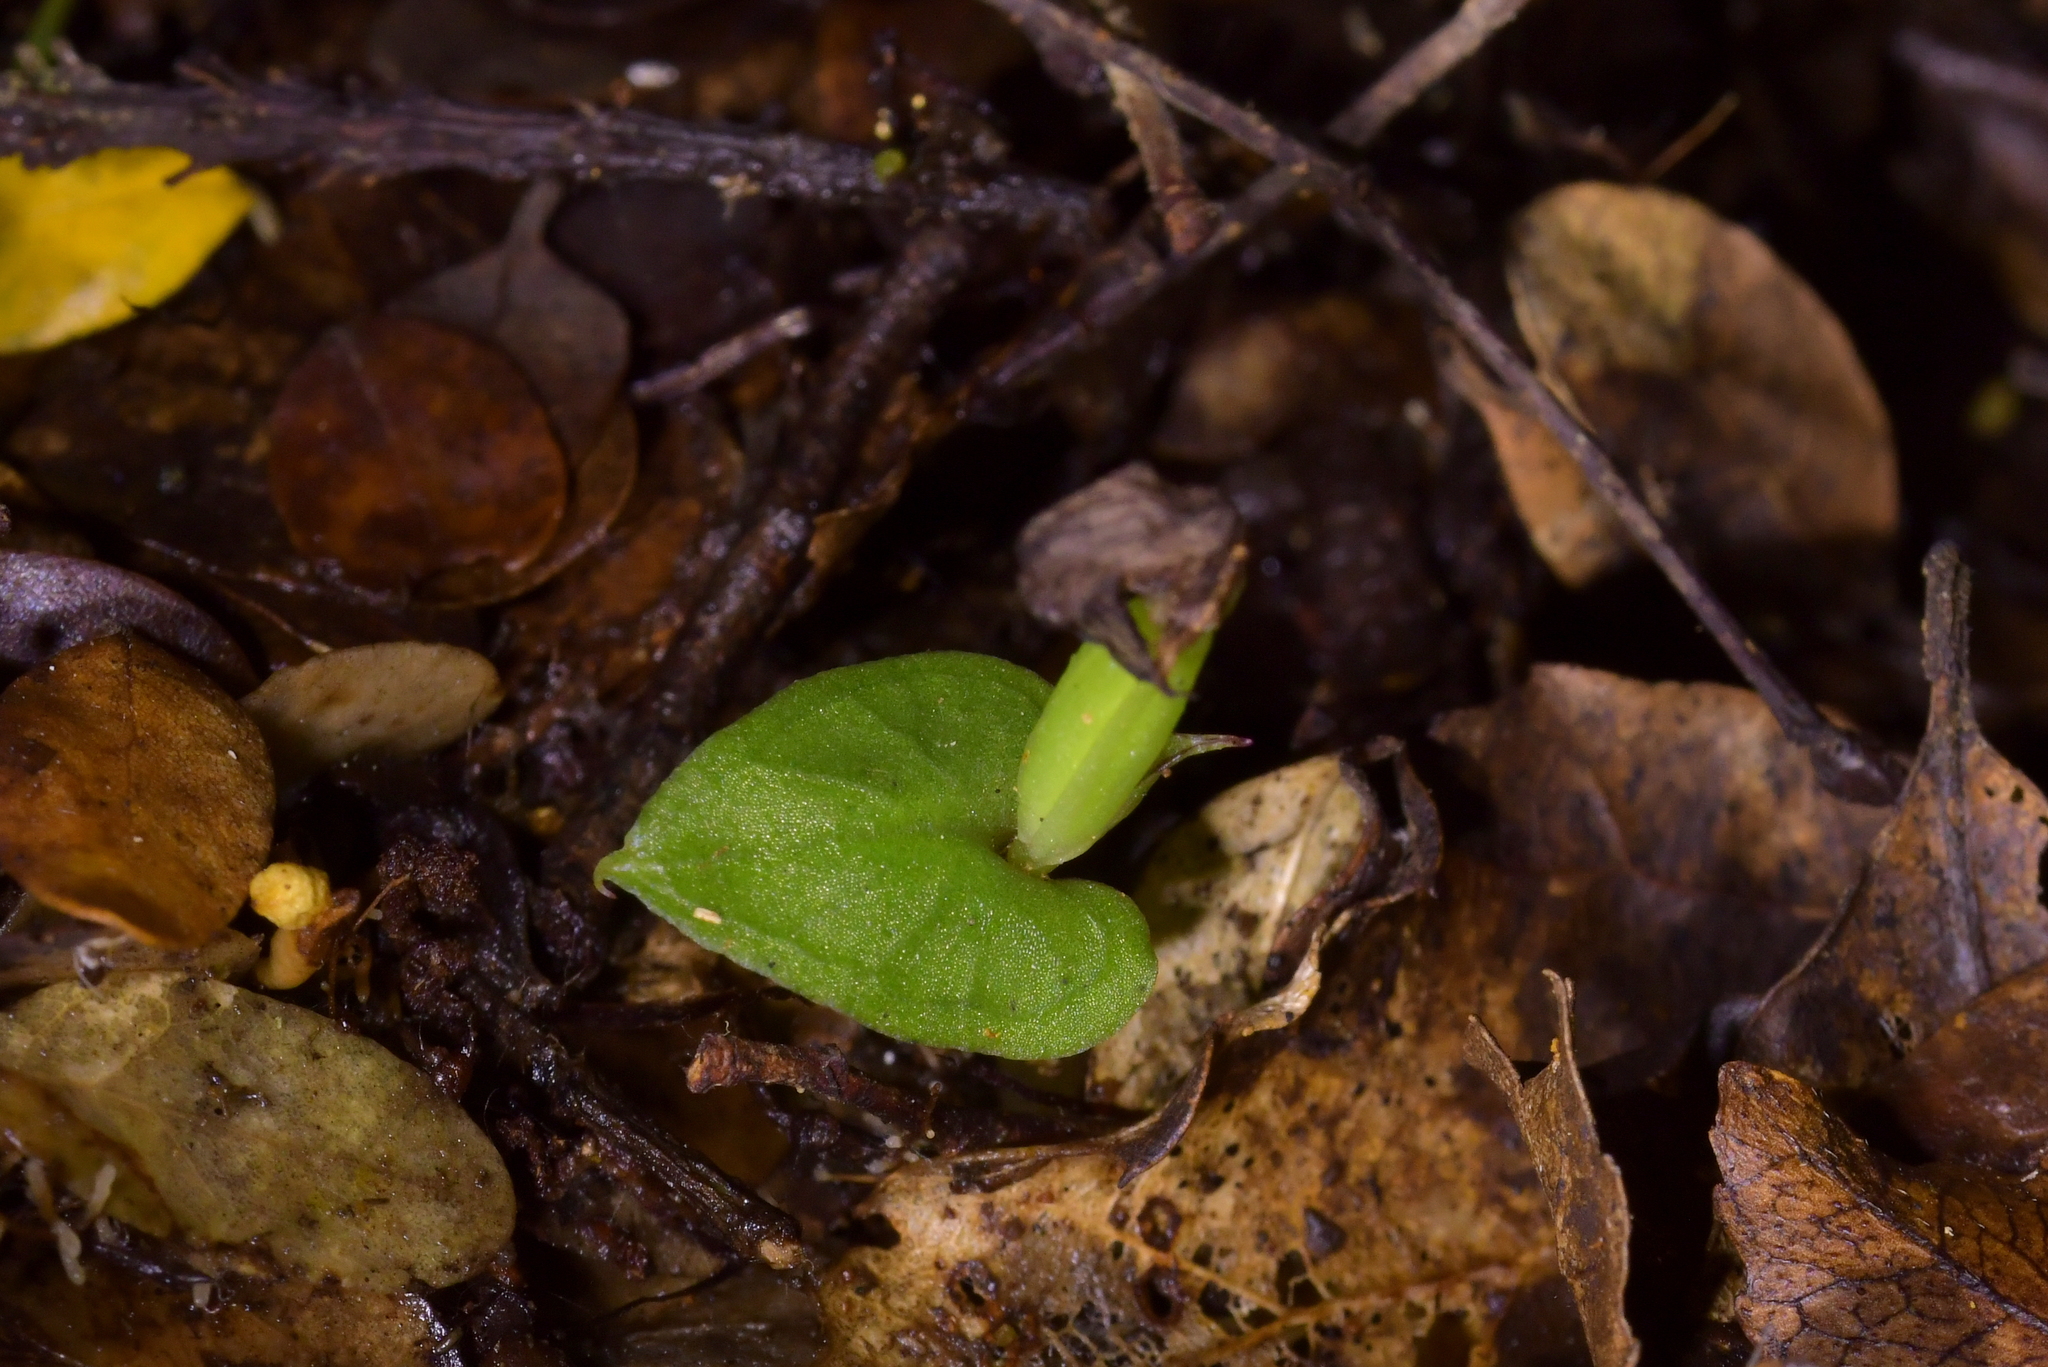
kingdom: Plantae
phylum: Tracheophyta
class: Liliopsida
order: Asparagales
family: Orchidaceae
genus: Corybas
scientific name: Corybas cheesemanii
